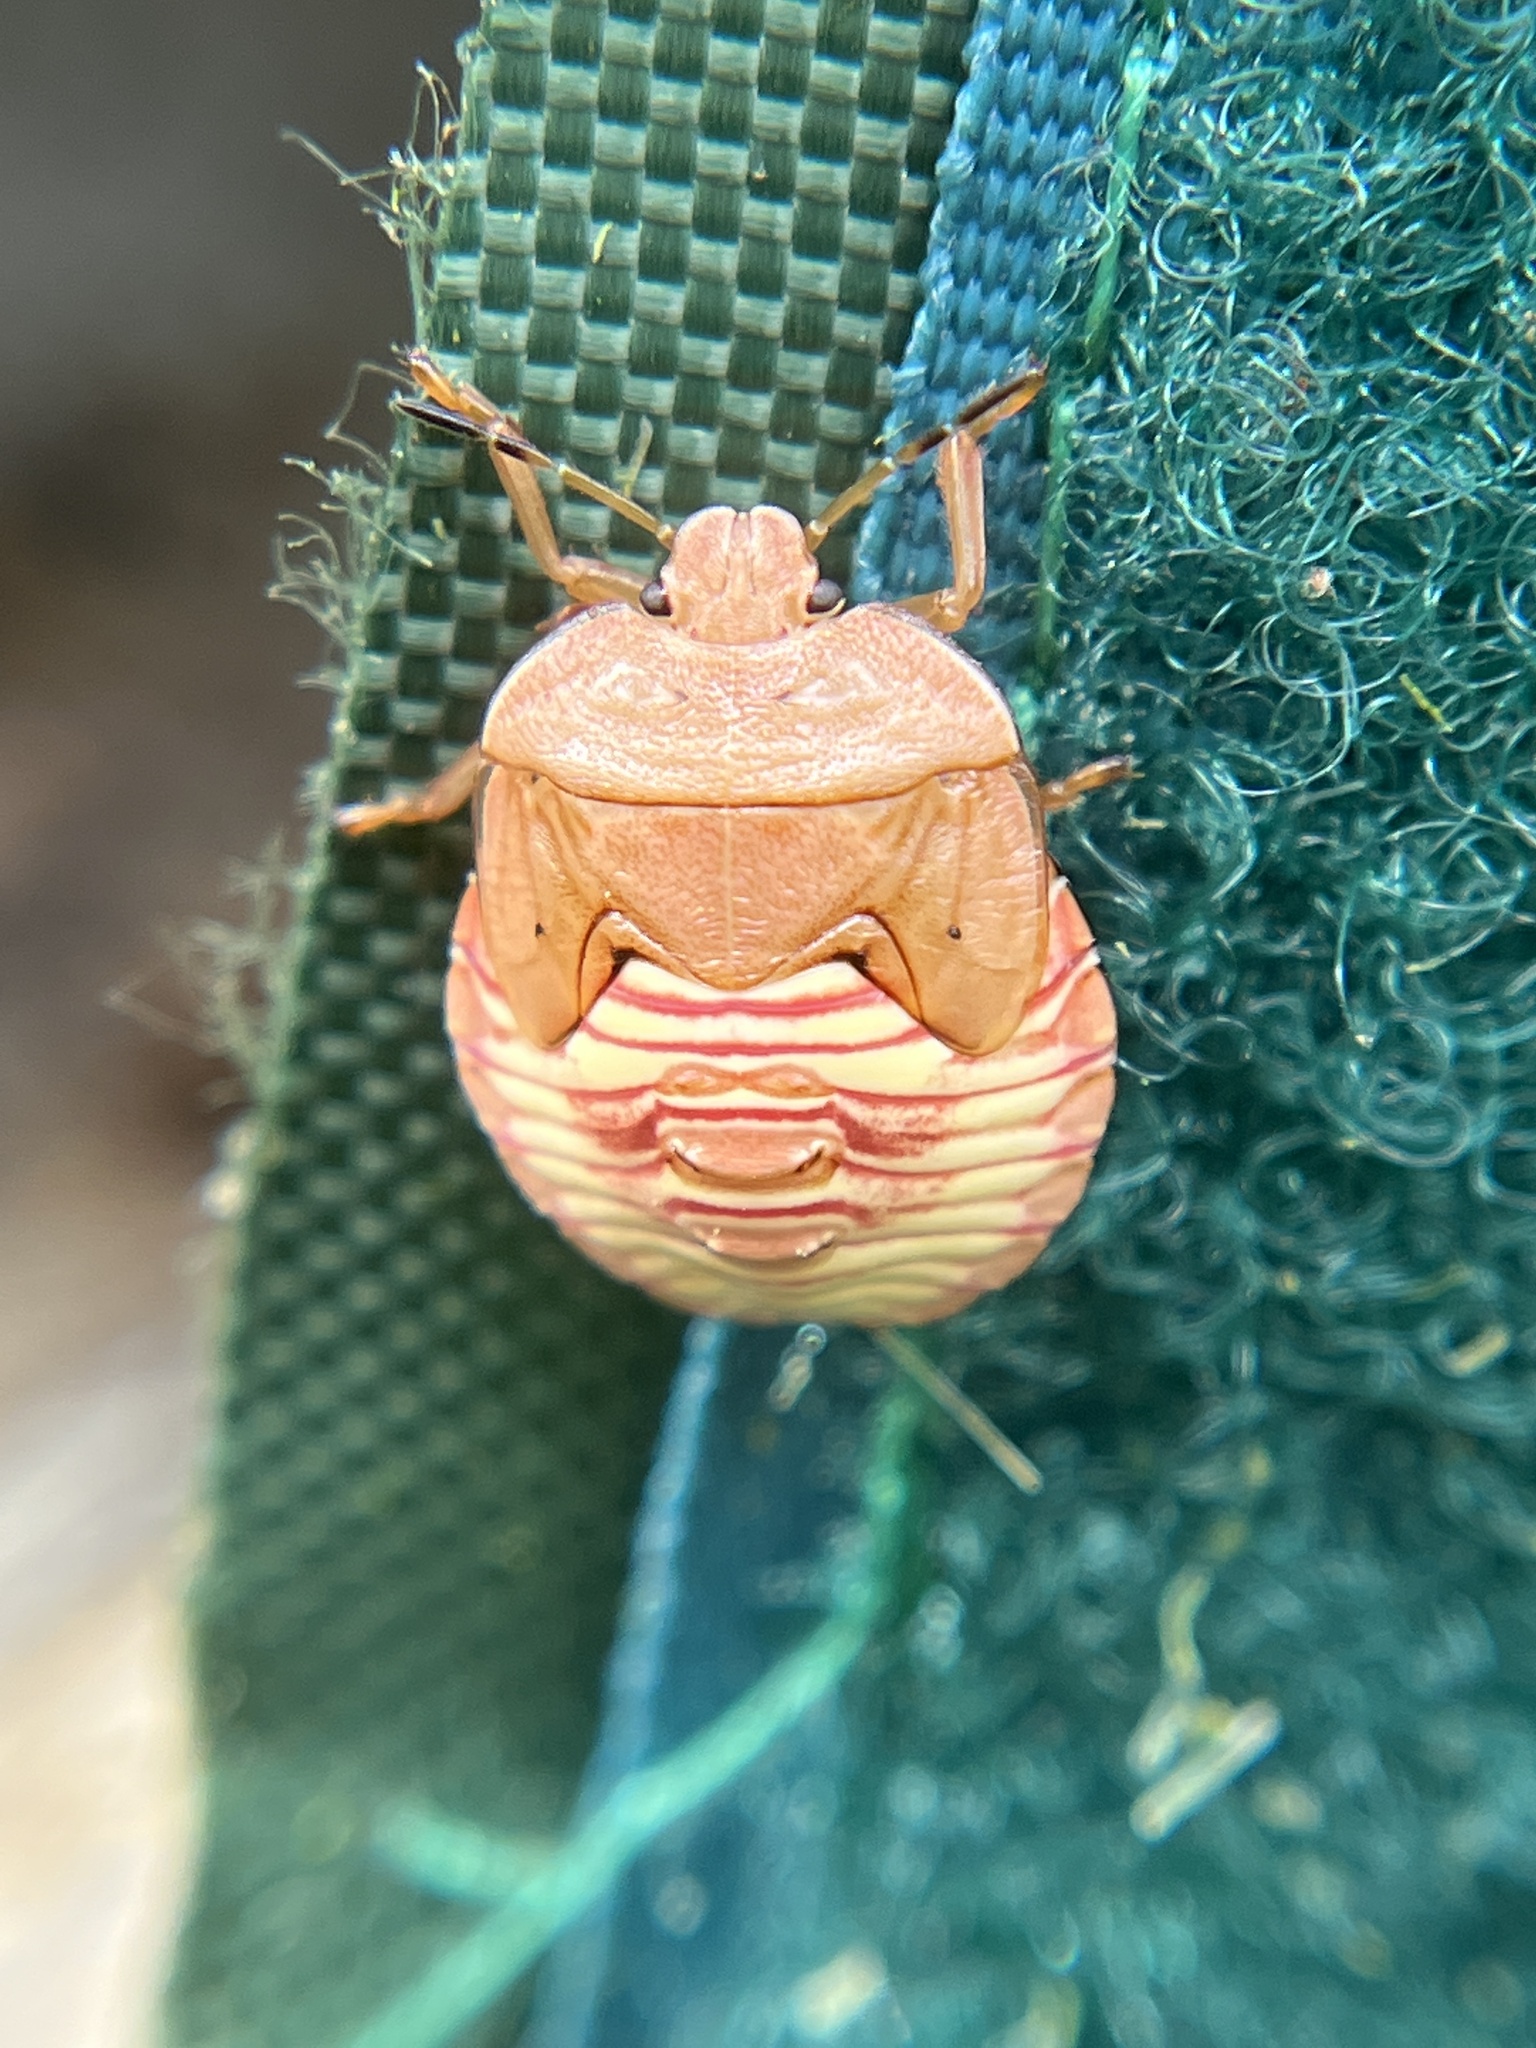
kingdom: Animalia
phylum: Arthropoda
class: Insecta
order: Hemiptera
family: Pentatomidae
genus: Chinavia
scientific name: Chinavia
